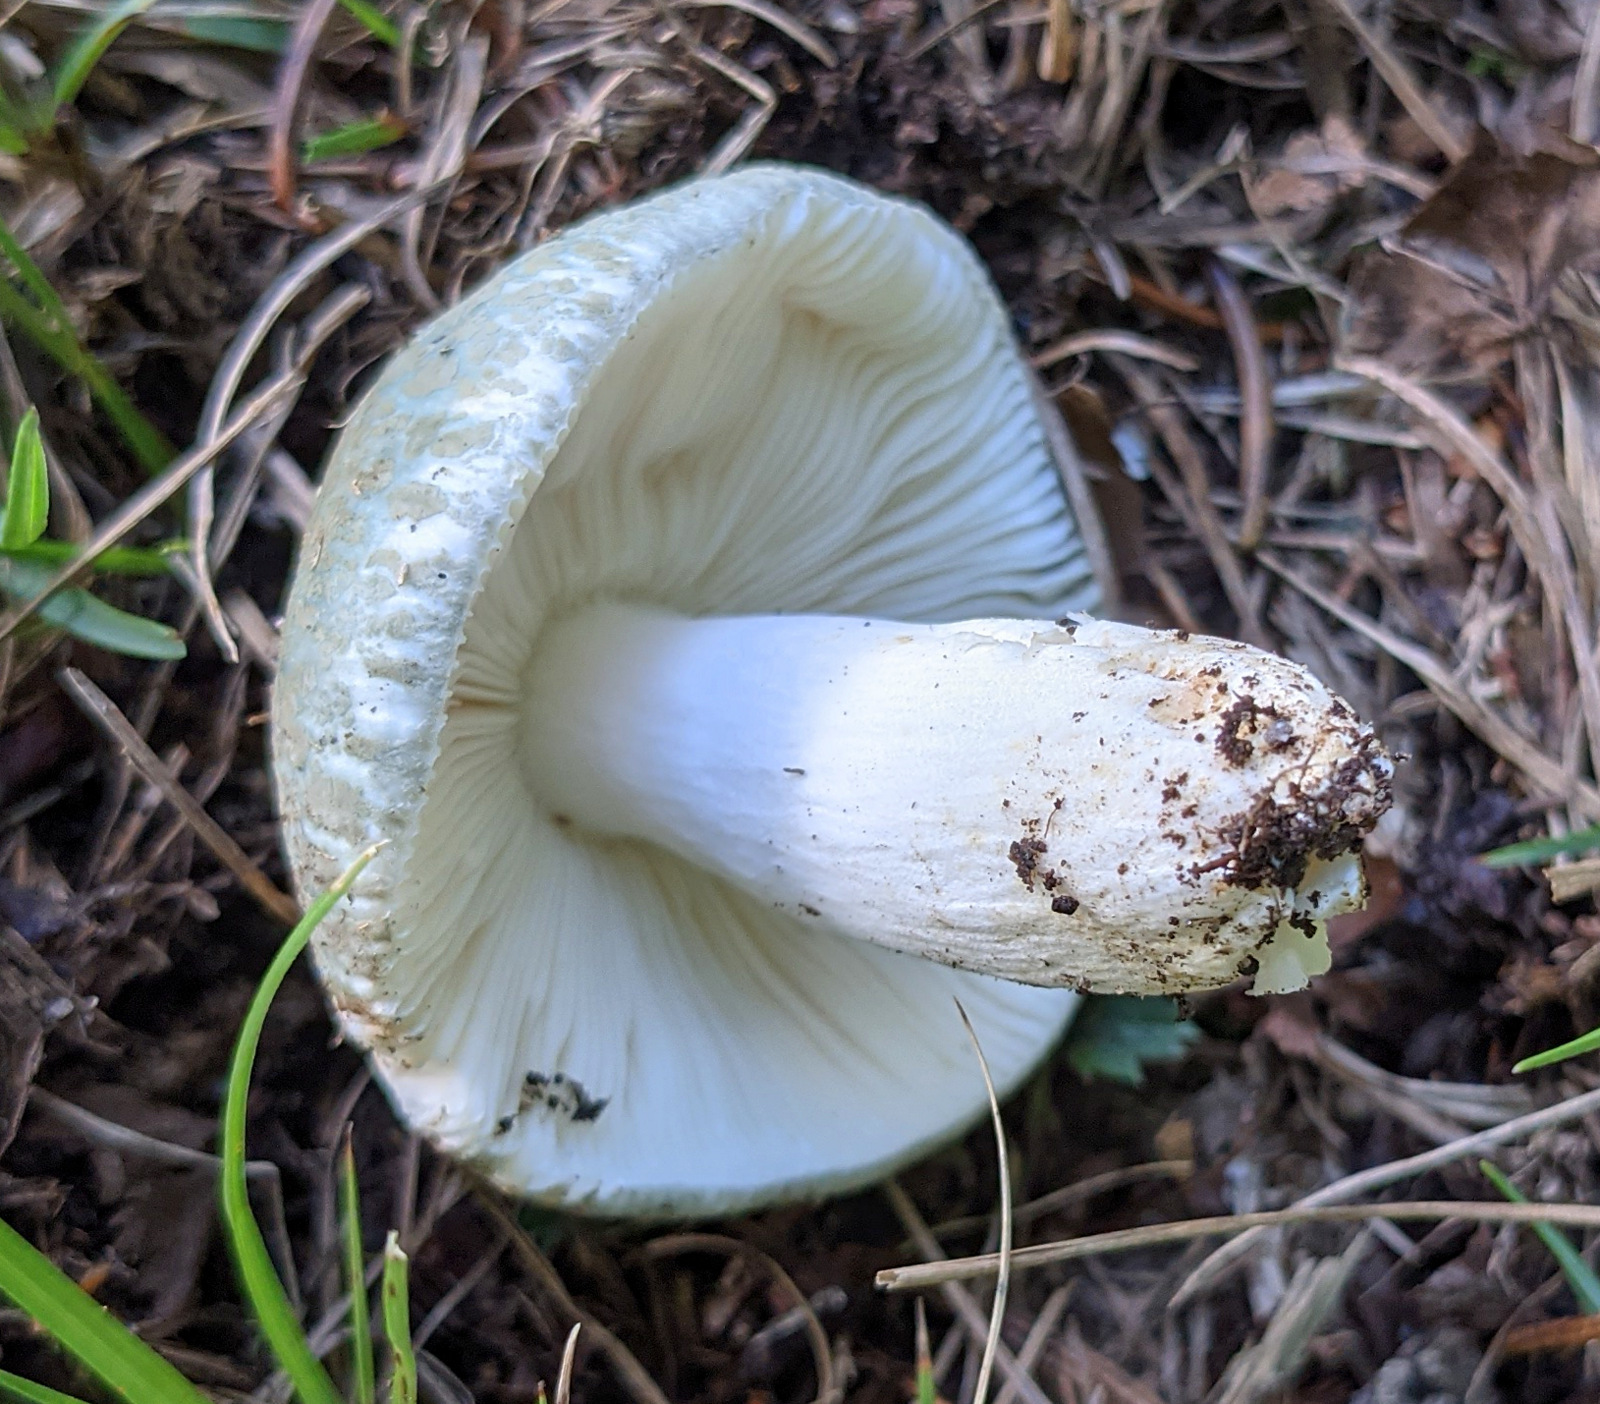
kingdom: Fungi
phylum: Basidiomycota
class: Agaricomycetes
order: Russulales
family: Russulaceae
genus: Russula
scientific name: Russula parvovirescens
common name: Blue-green cracking russula
